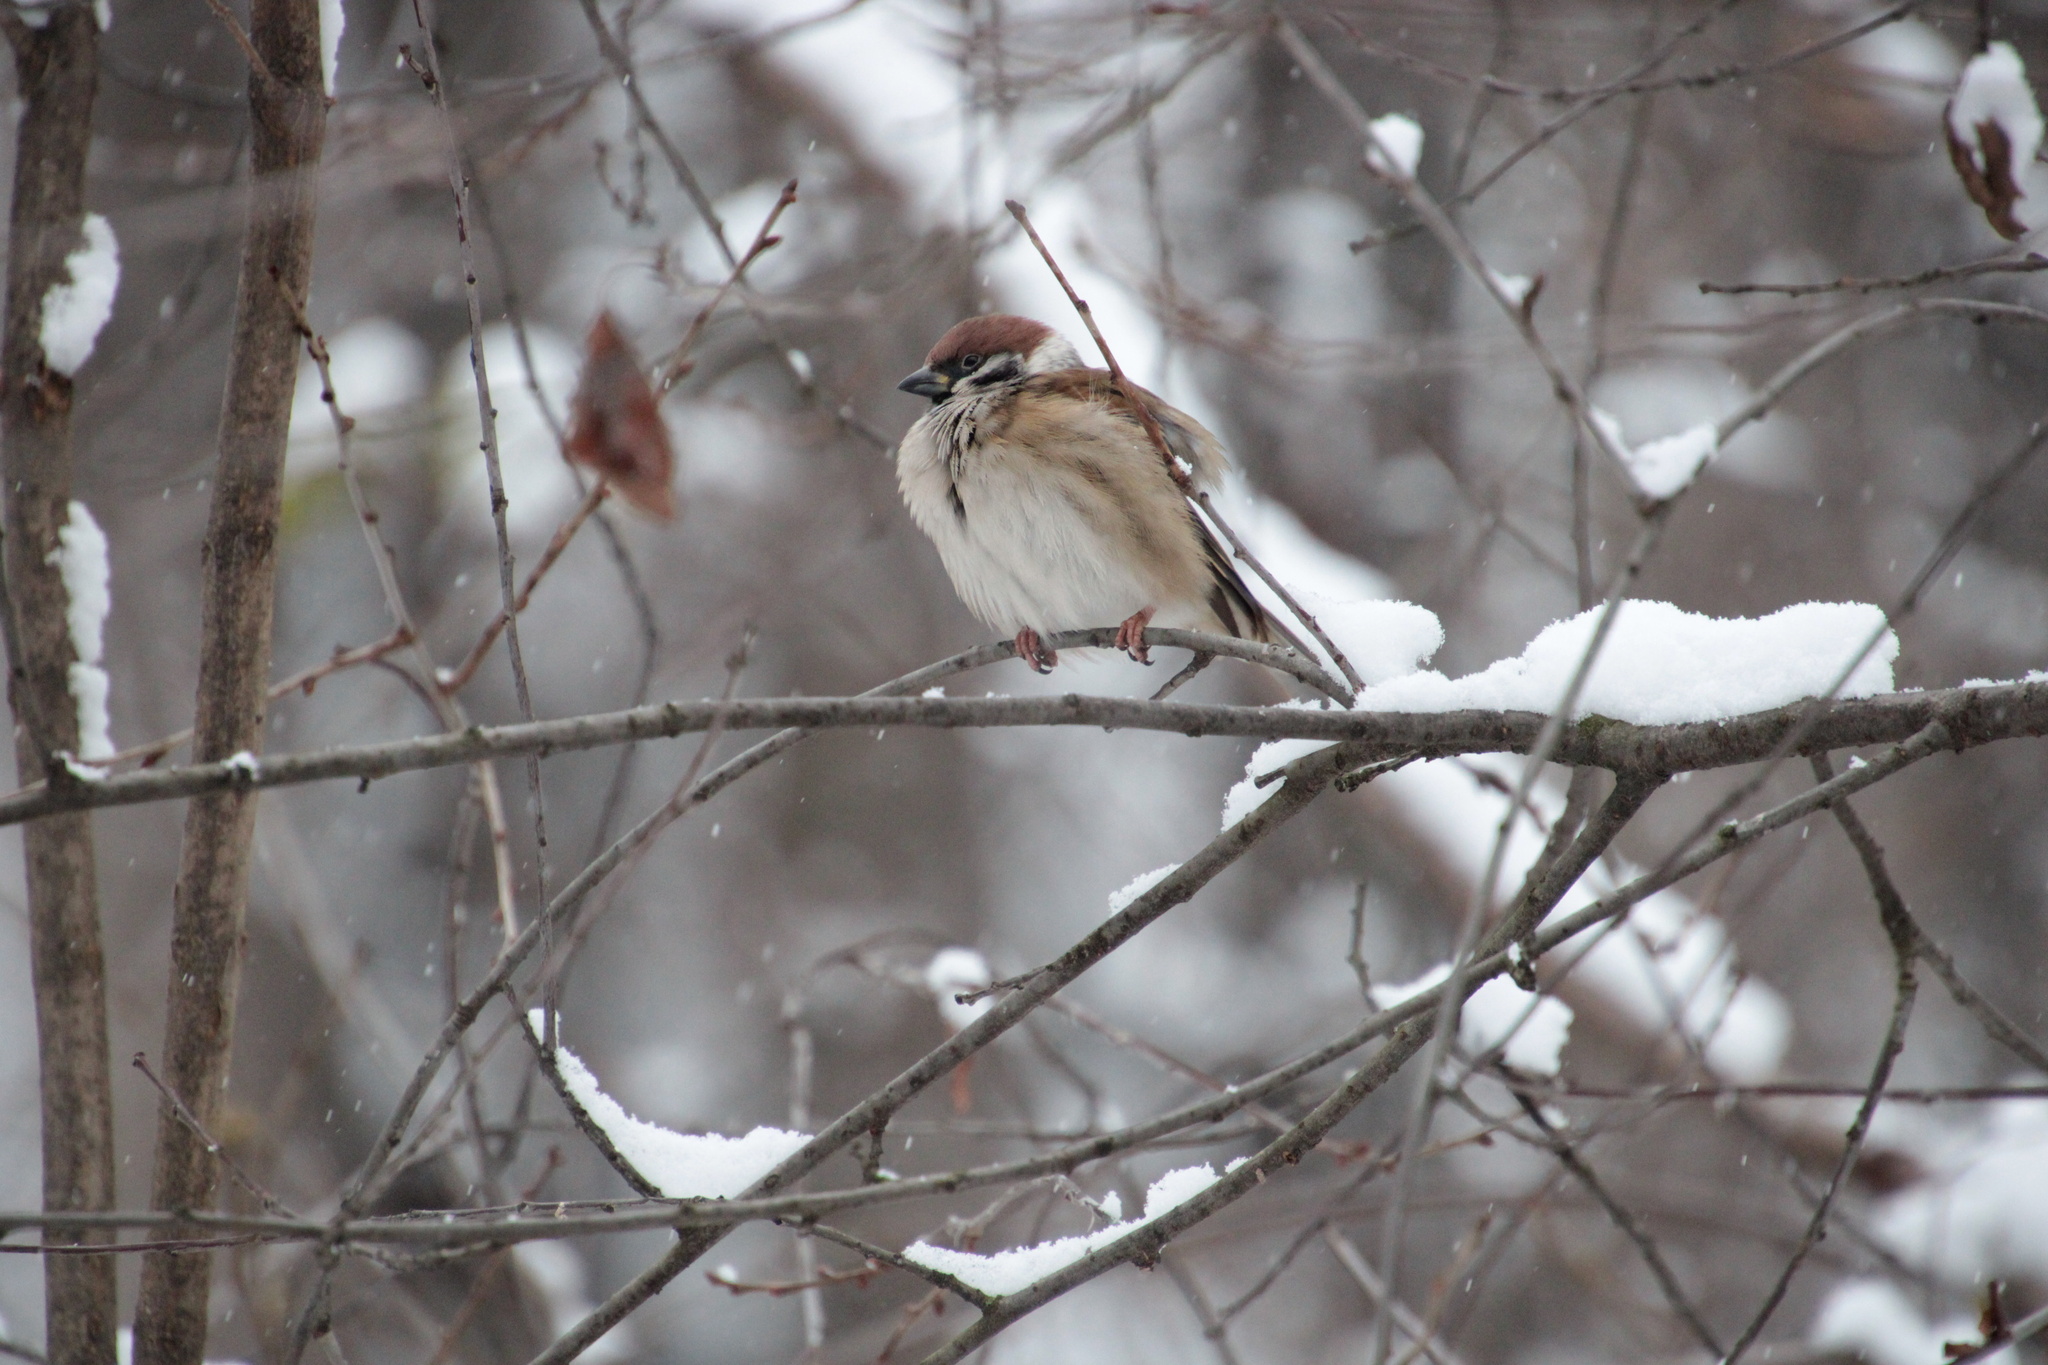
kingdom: Animalia
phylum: Chordata
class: Aves
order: Passeriformes
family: Passeridae
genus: Passer
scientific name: Passer montanus
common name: Eurasian tree sparrow
